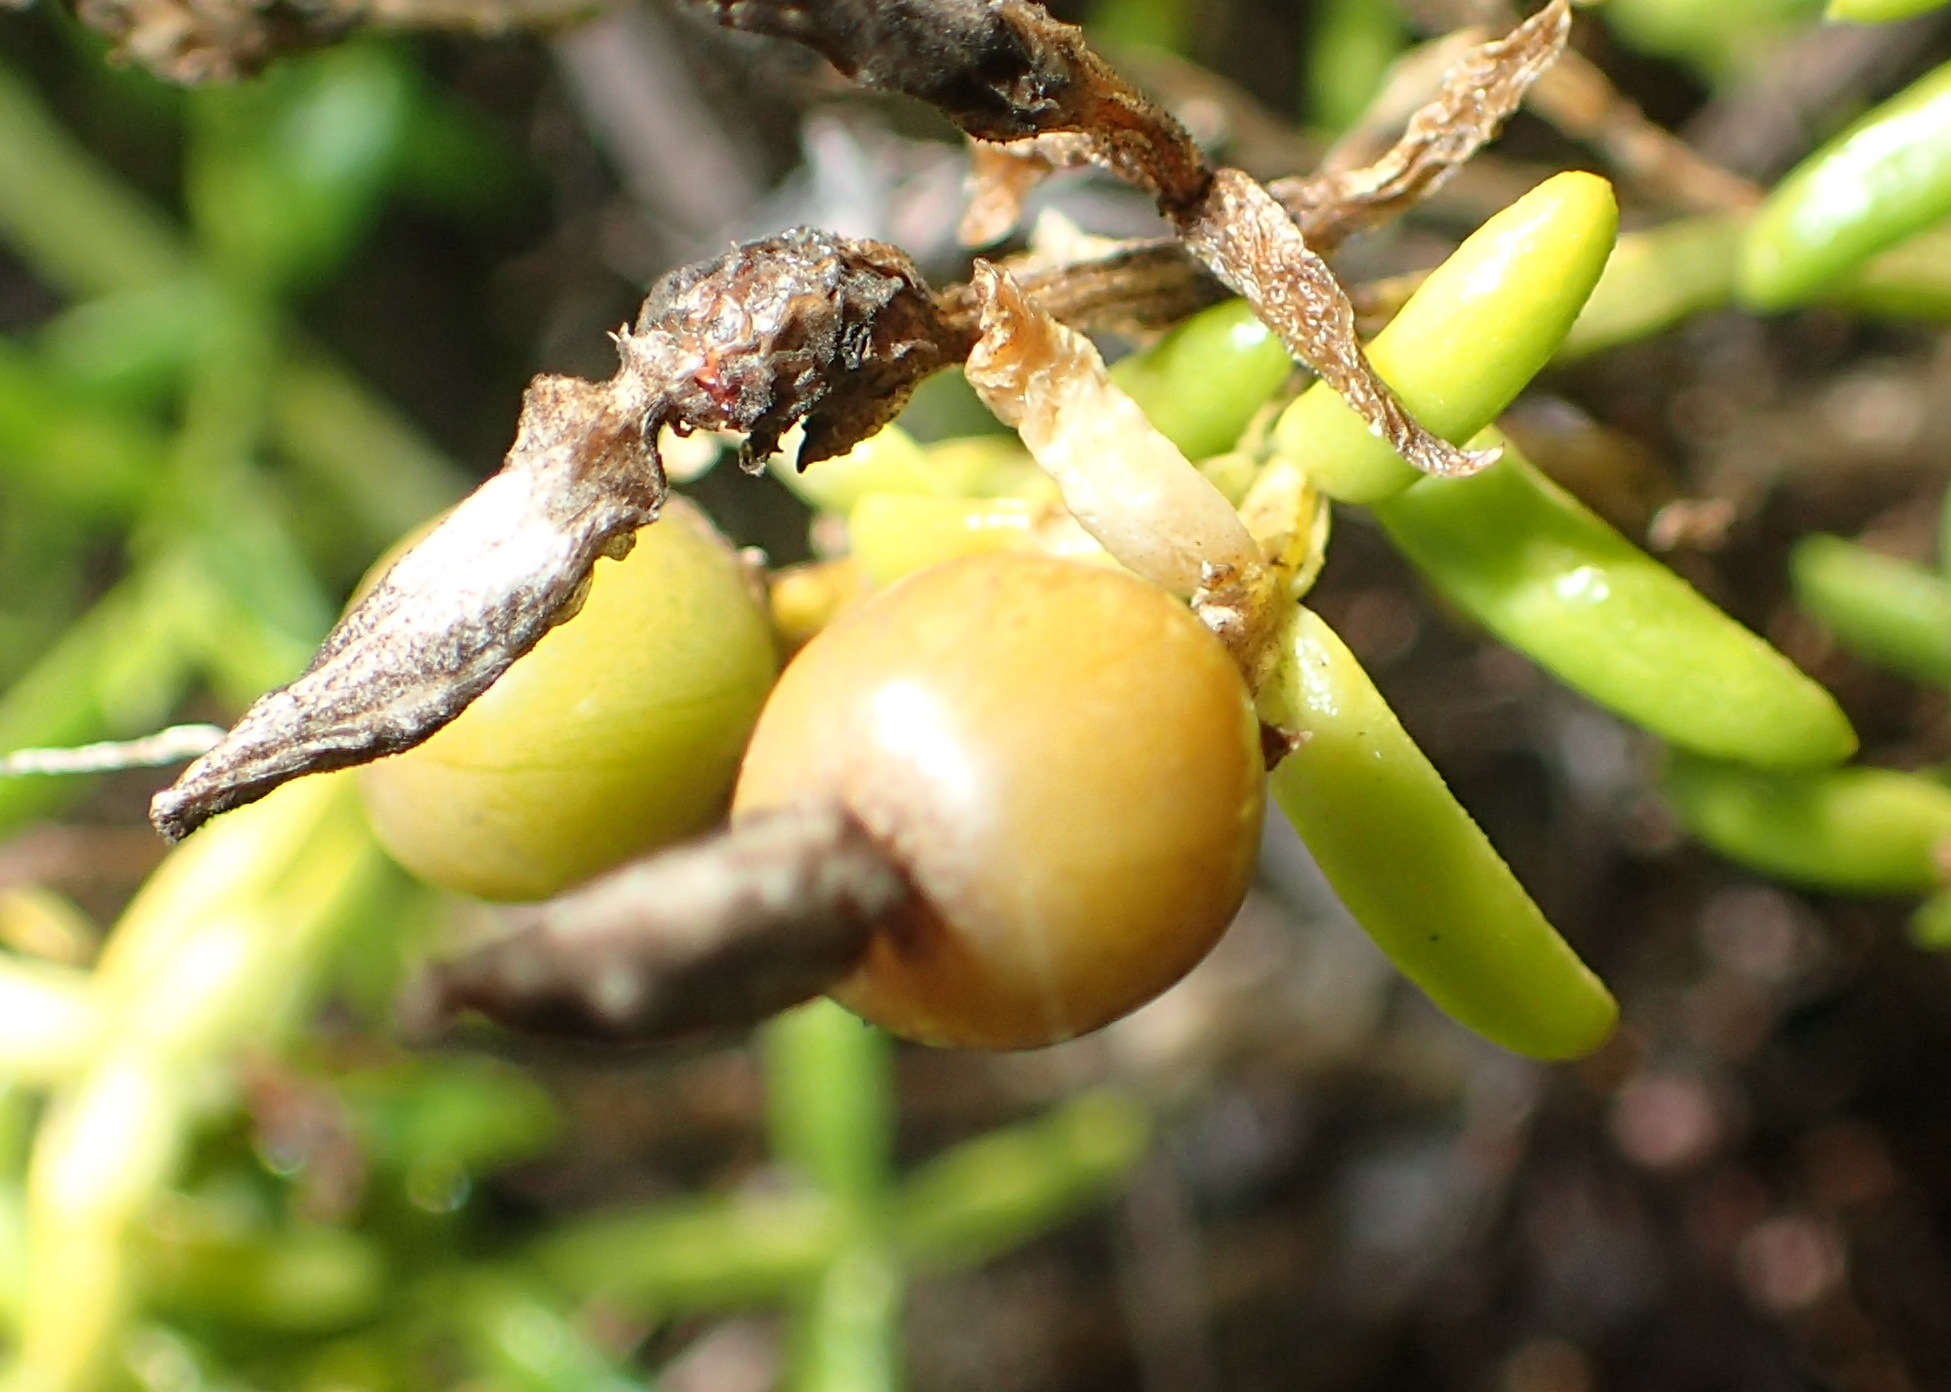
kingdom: Plantae
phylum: Tracheophyta
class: Magnoliopsida
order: Gentianales
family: Gentianaceae
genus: Chironia
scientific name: Chironia baccifera
